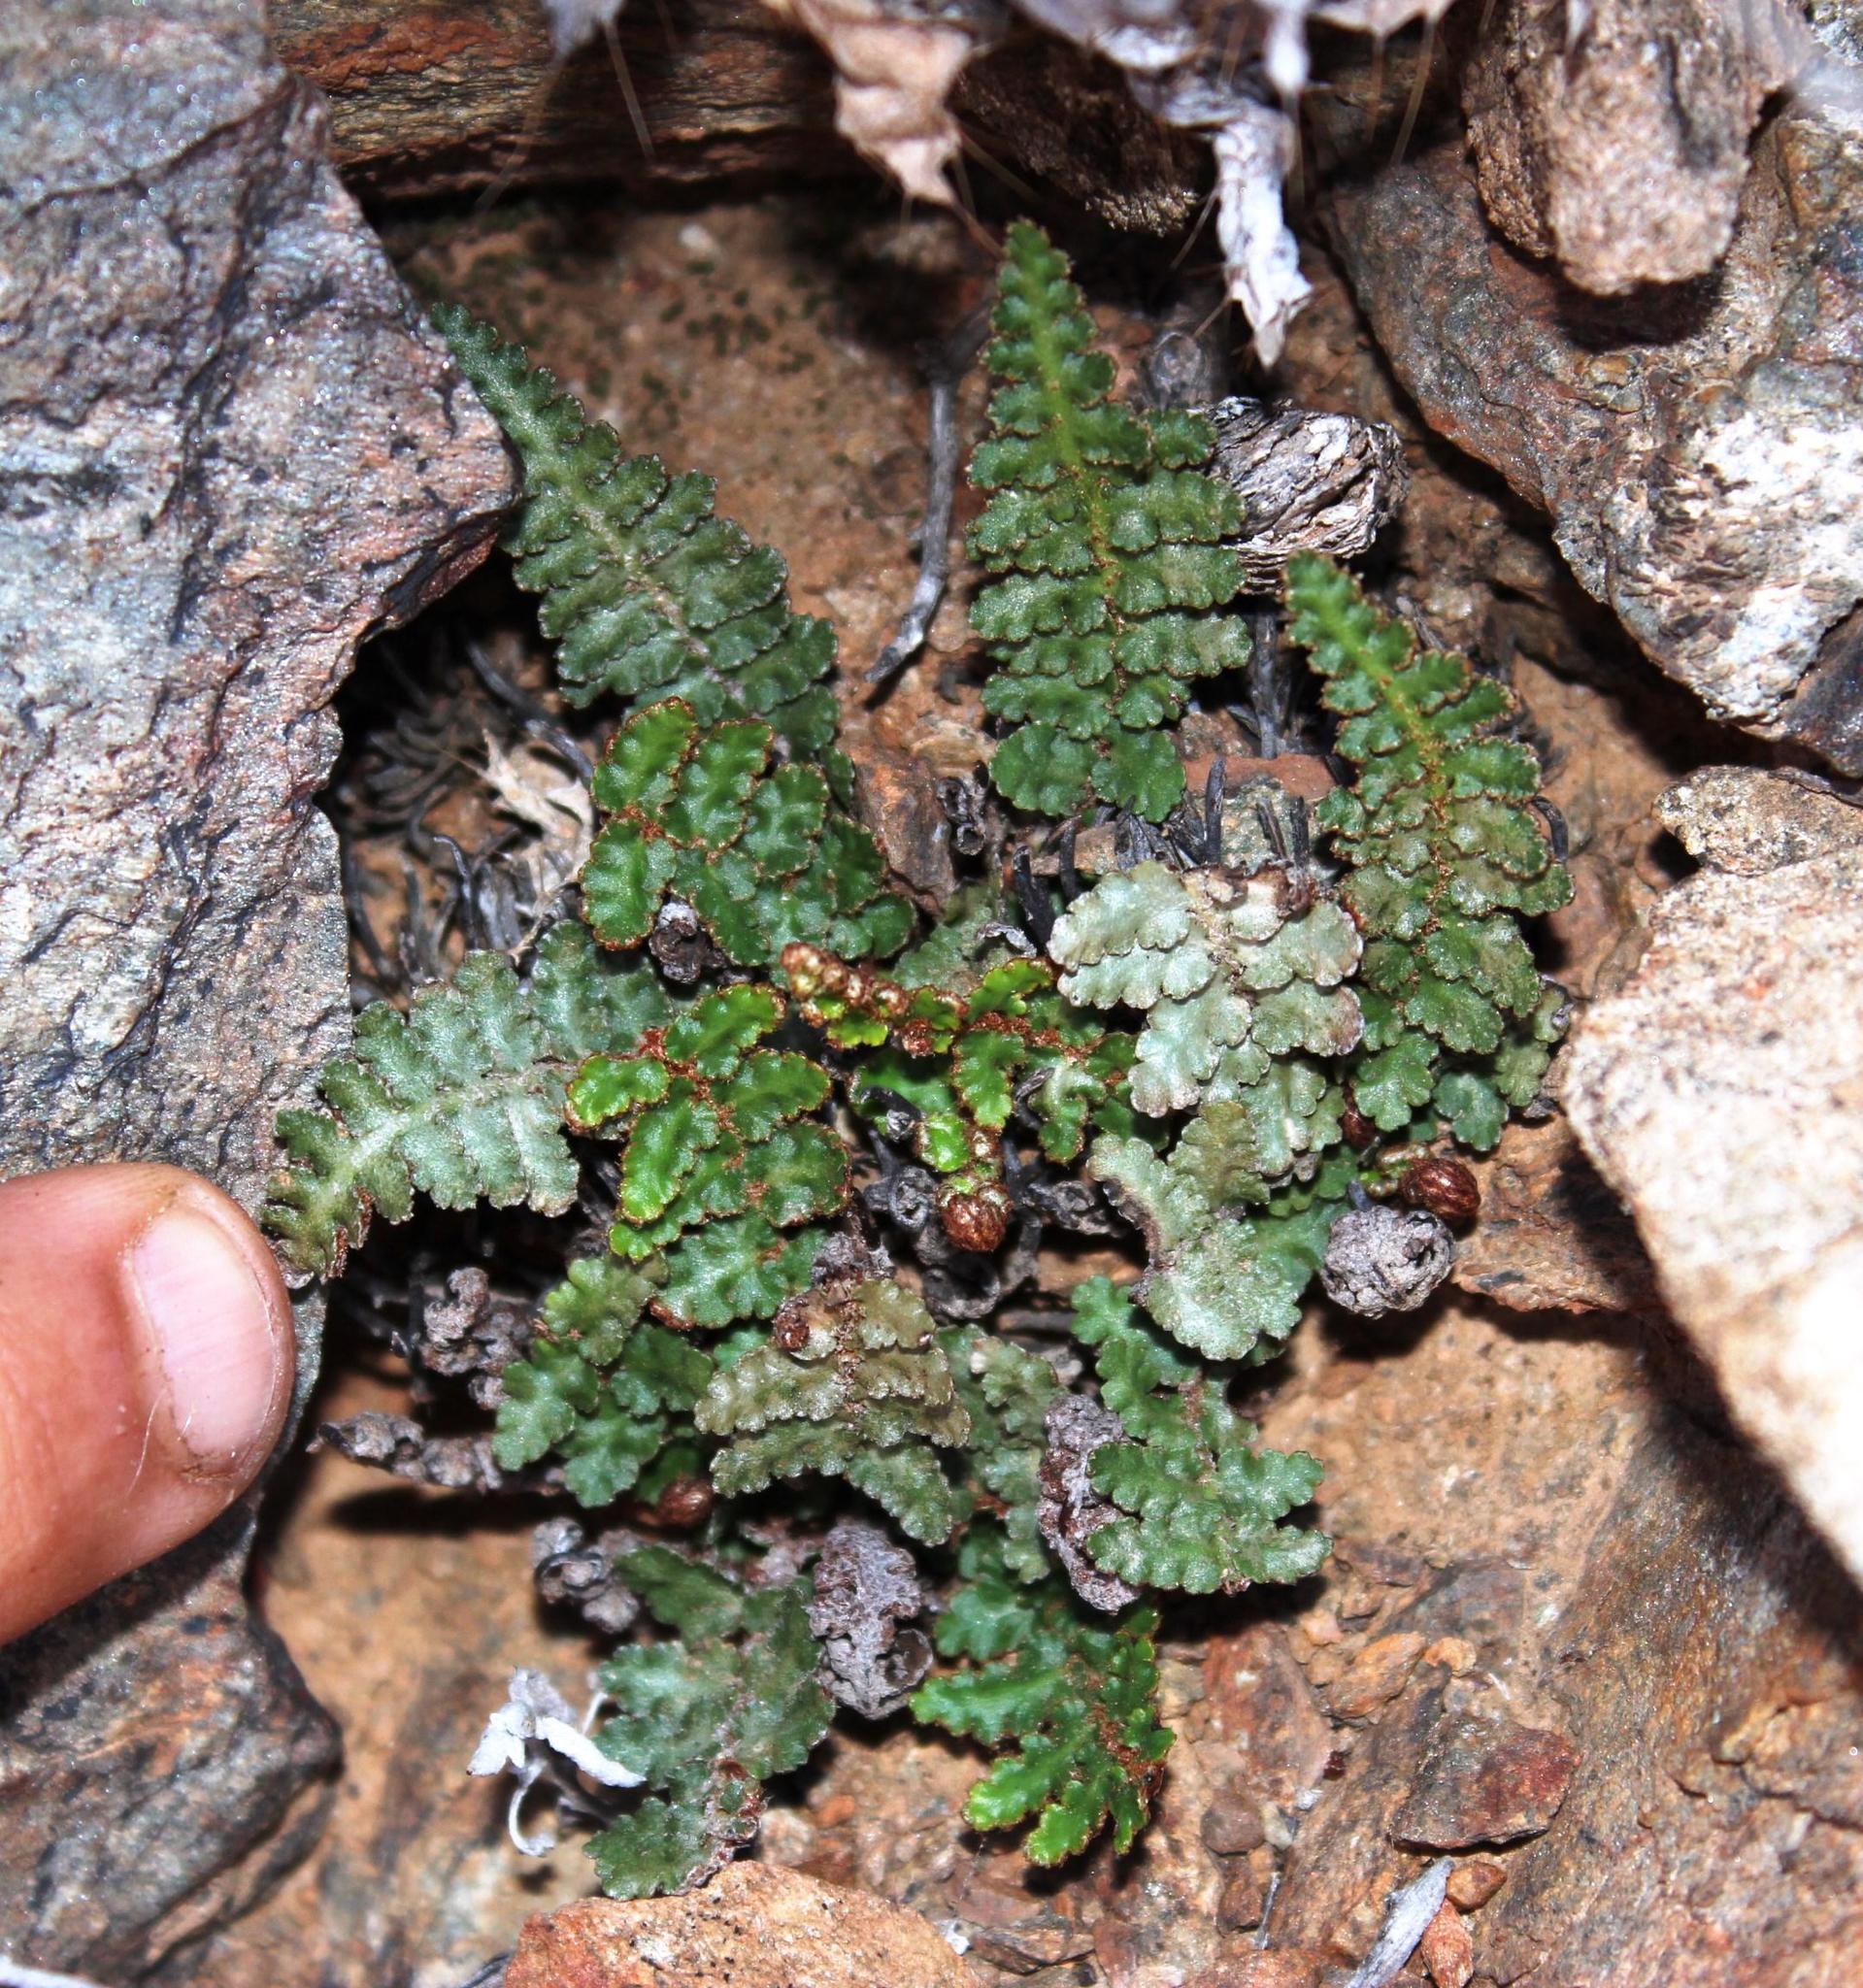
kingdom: Plantae
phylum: Tracheophyta
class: Polypodiopsida
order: Polypodiales
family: Aspleniaceae
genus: Asplenium
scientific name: Asplenium cordatum
